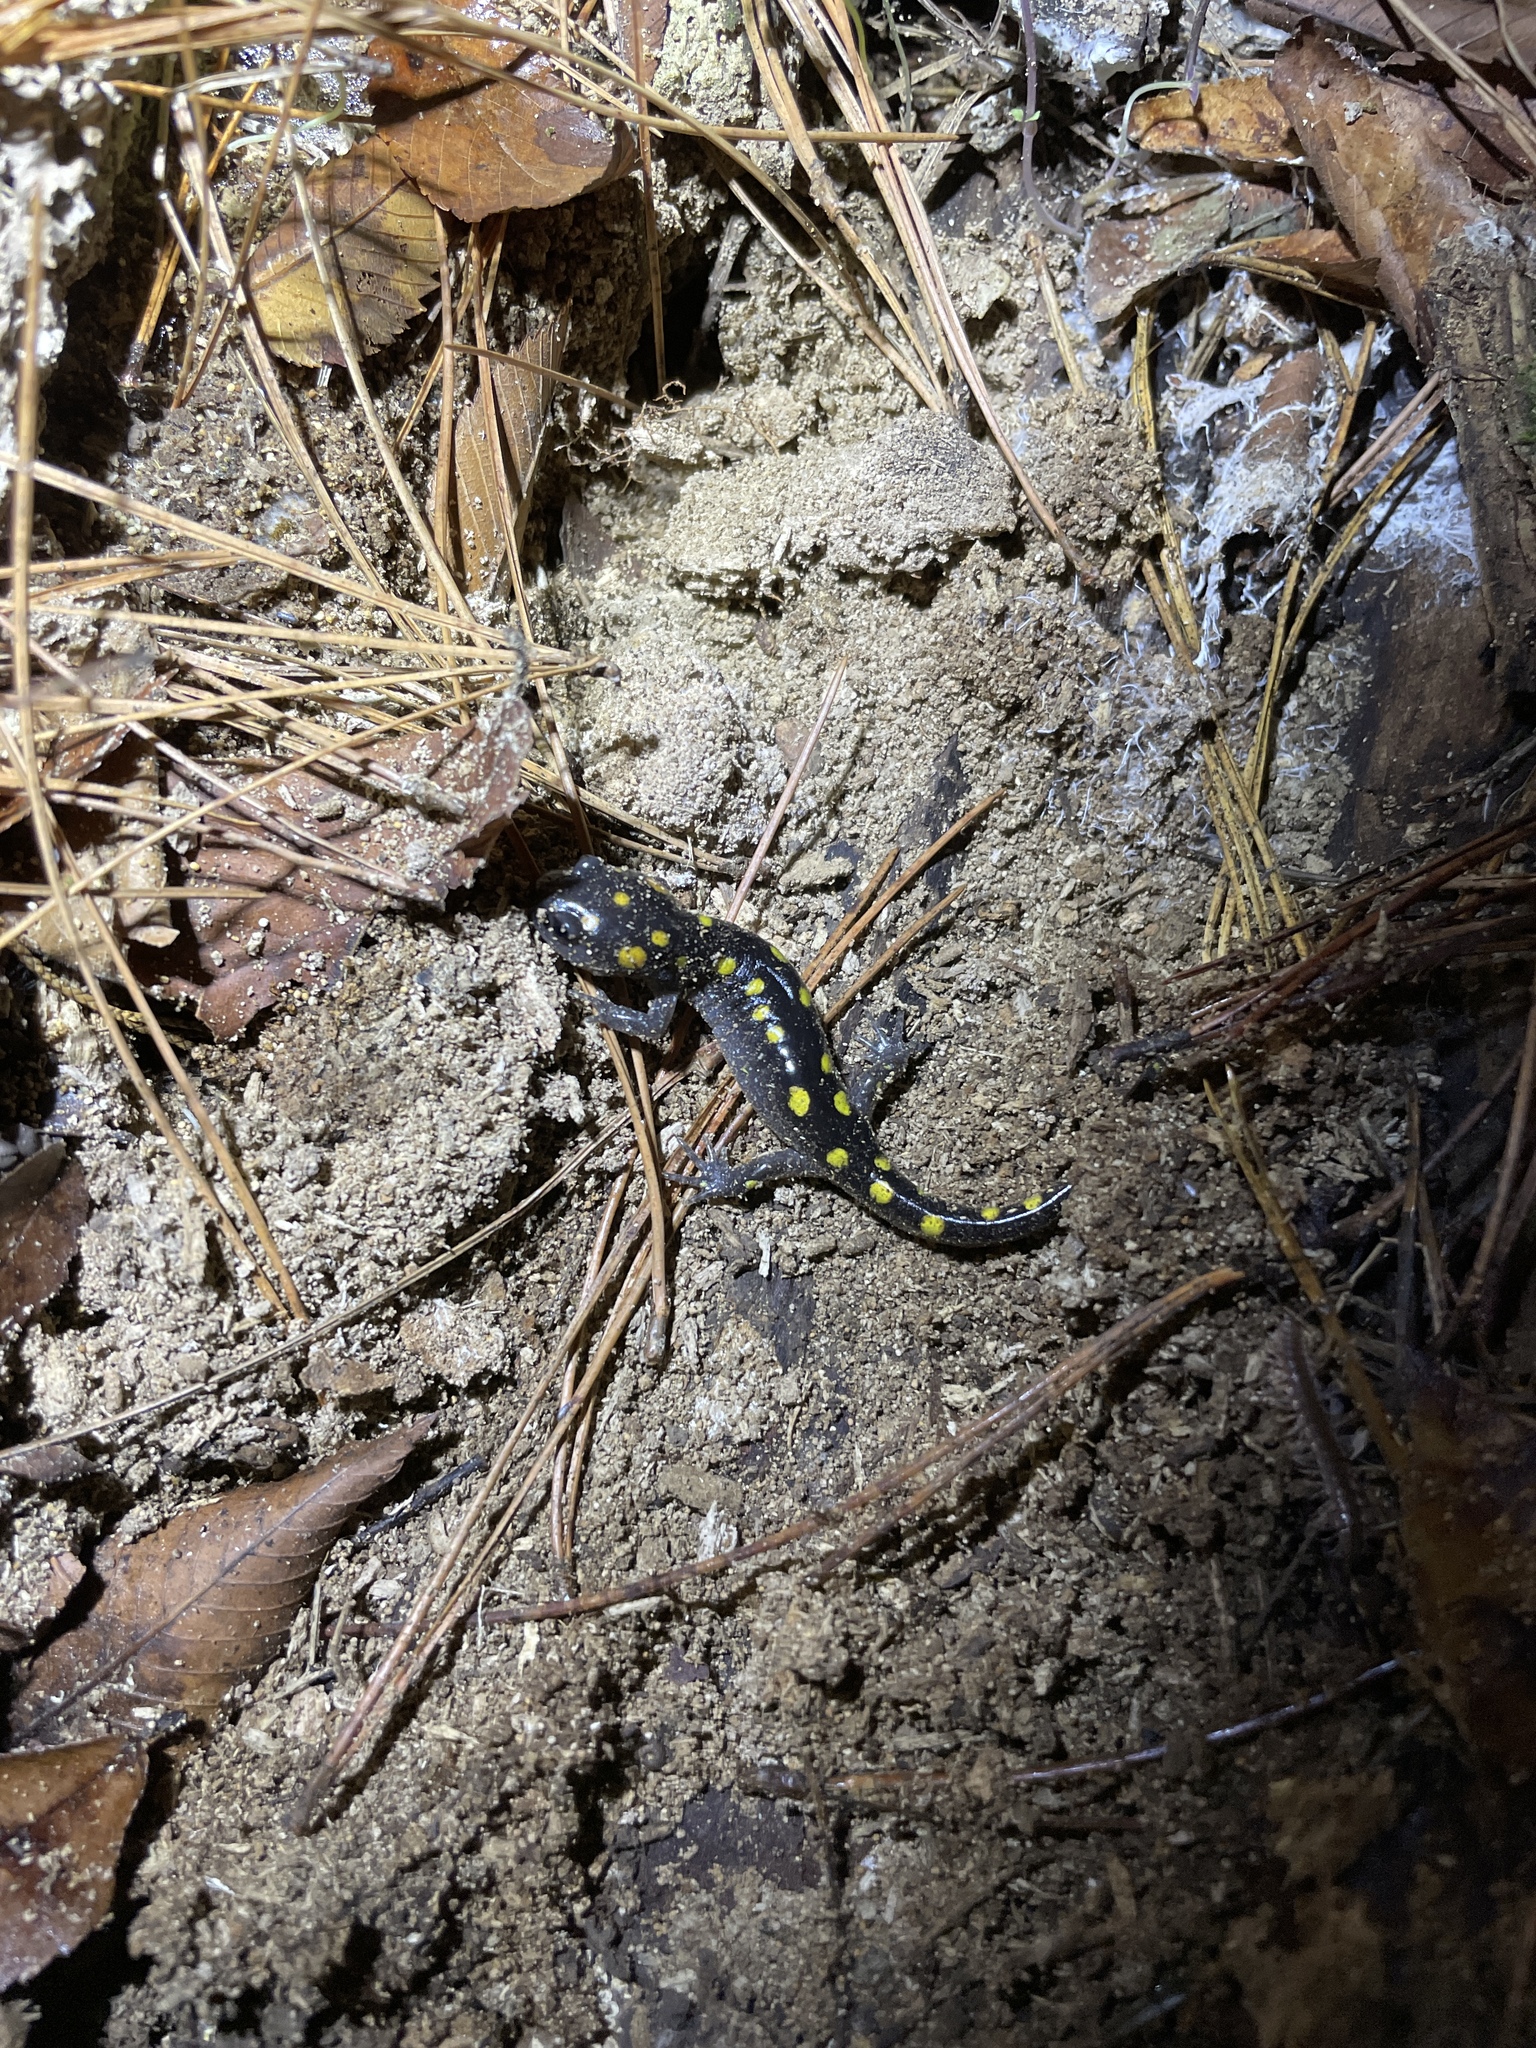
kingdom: Animalia
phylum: Chordata
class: Amphibia
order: Caudata
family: Ambystomatidae
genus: Ambystoma
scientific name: Ambystoma maculatum
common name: Spotted salamander
